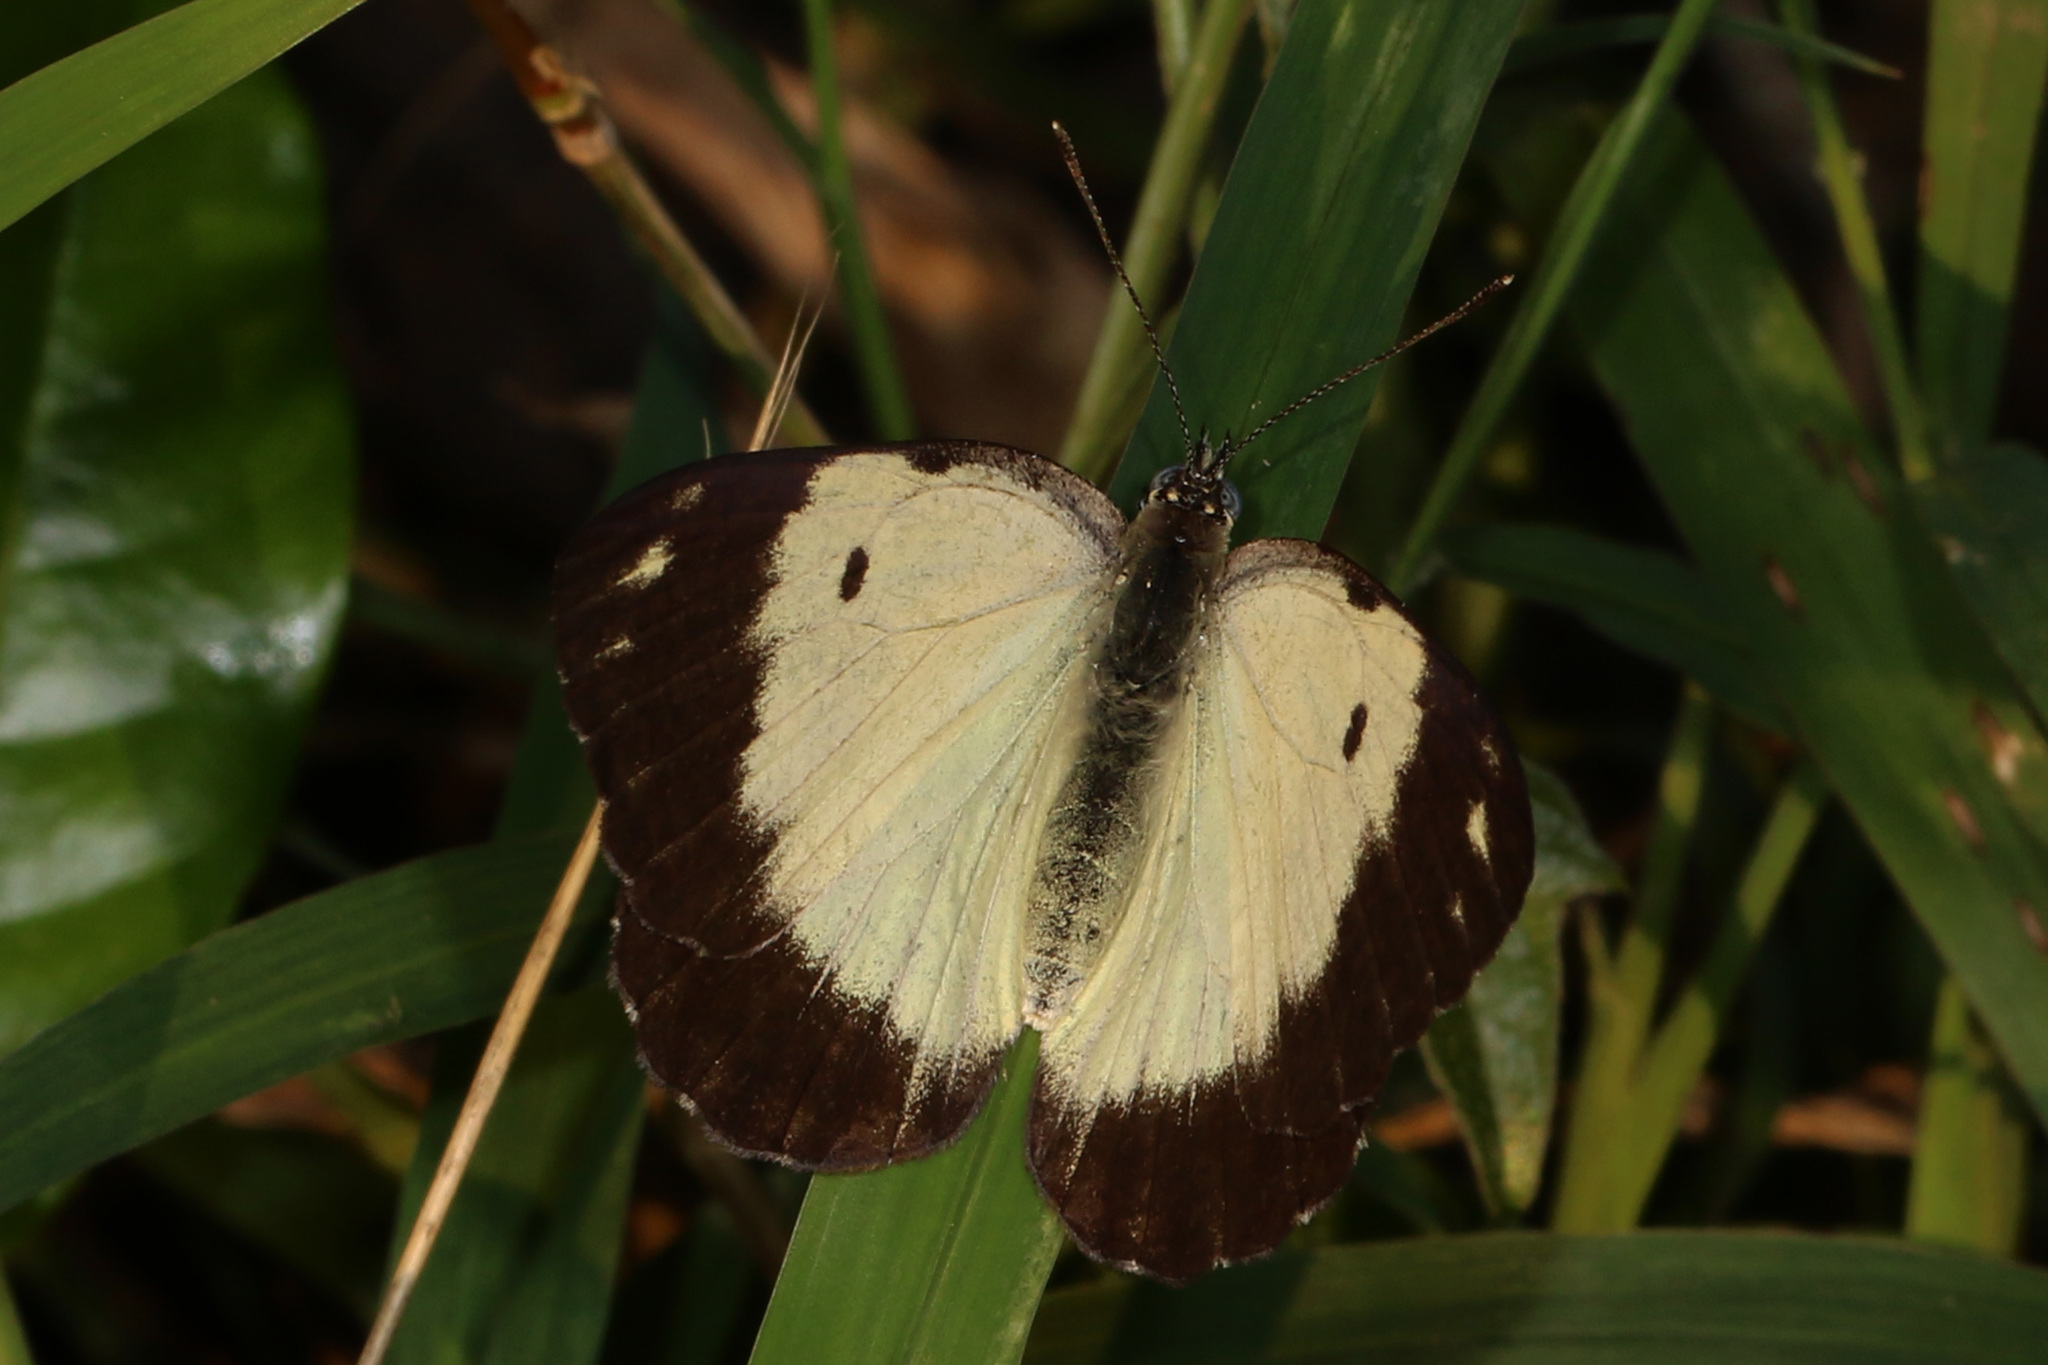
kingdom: Animalia
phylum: Arthropoda
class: Insecta
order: Lepidoptera
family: Pieridae
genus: Belenois
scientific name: Belenois creona
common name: African caper white
